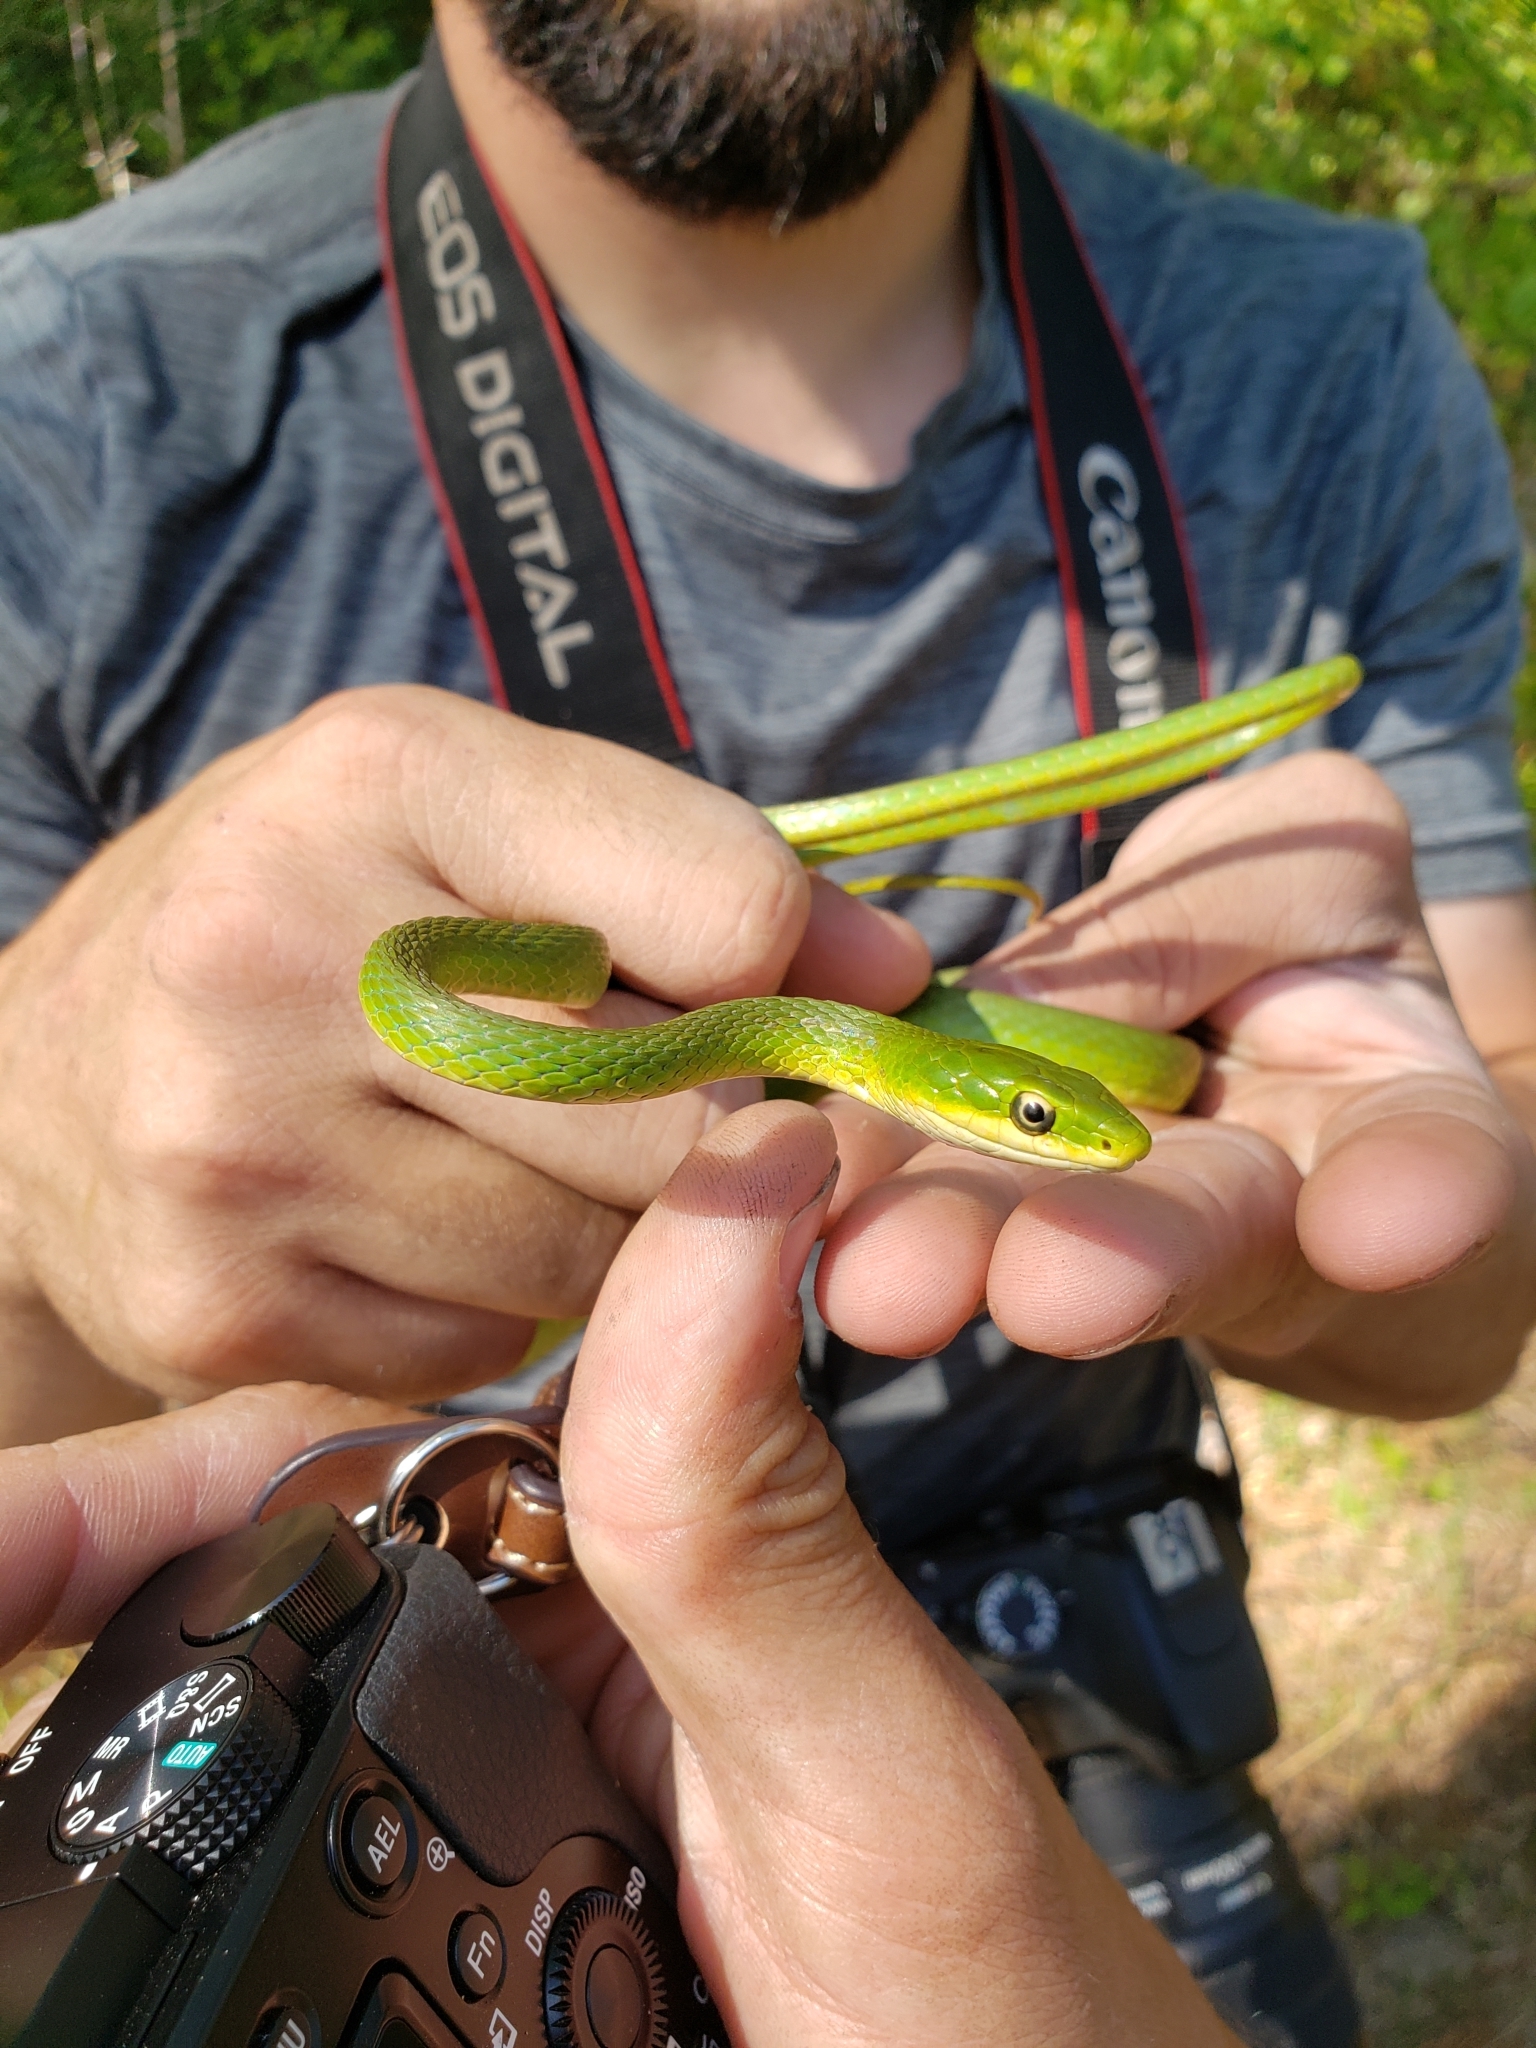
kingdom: Animalia
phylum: Chordata
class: Squamata
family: Colubridae
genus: Opheodrys
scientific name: Opheodrys aestivus
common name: Rough greensnake
